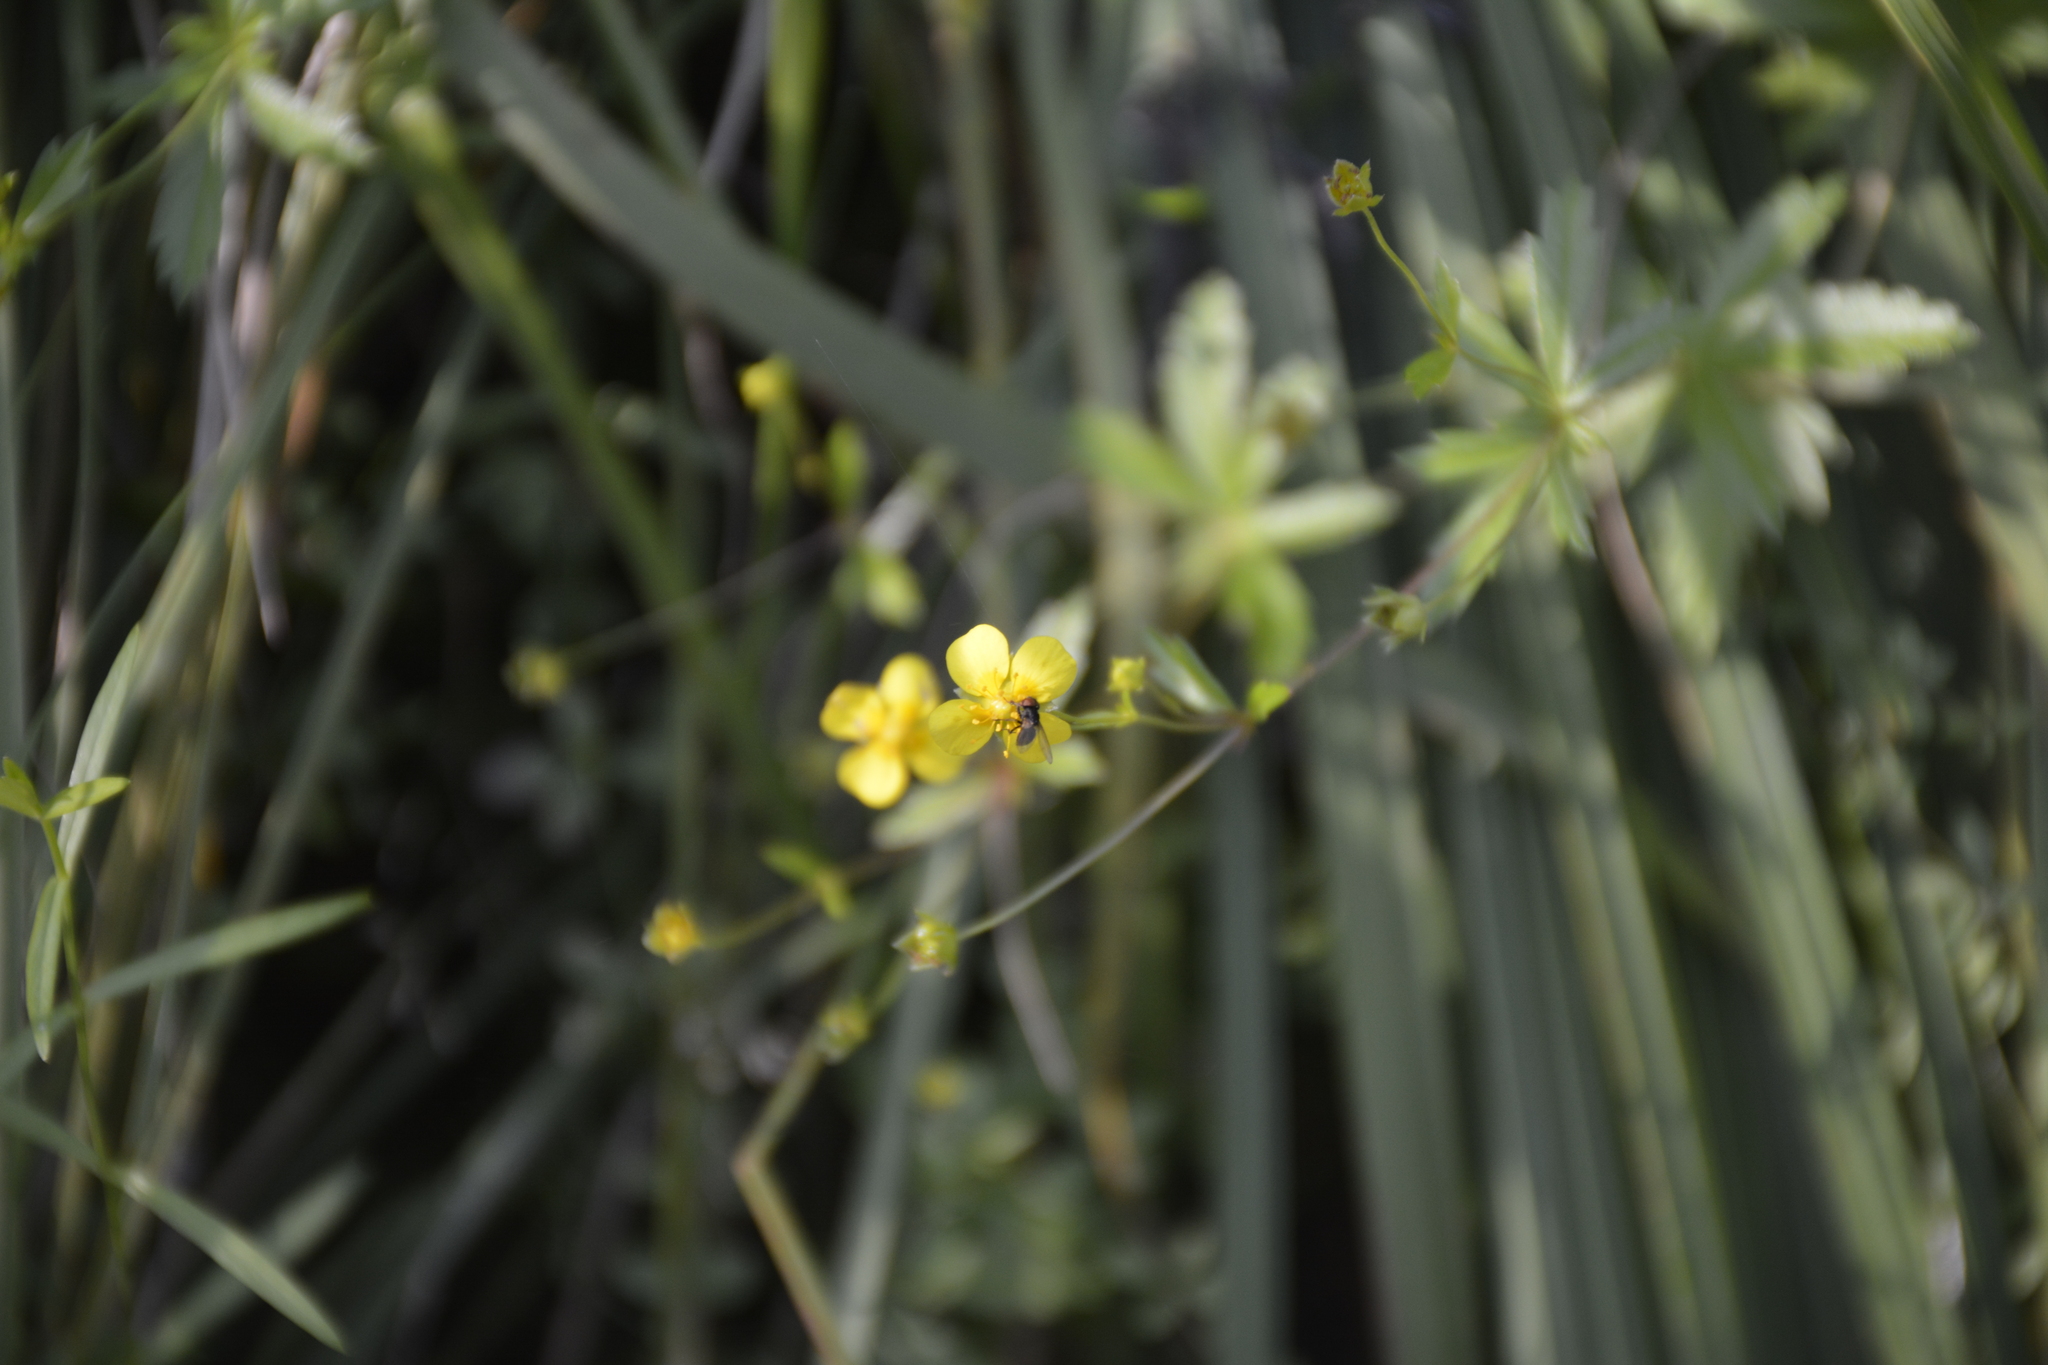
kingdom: Plantae
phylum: Tracheophyta
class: Magnoliopsida
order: Rosales
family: Rosaceae
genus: Potentilla
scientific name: Potentilla erecta
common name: Tormentil
